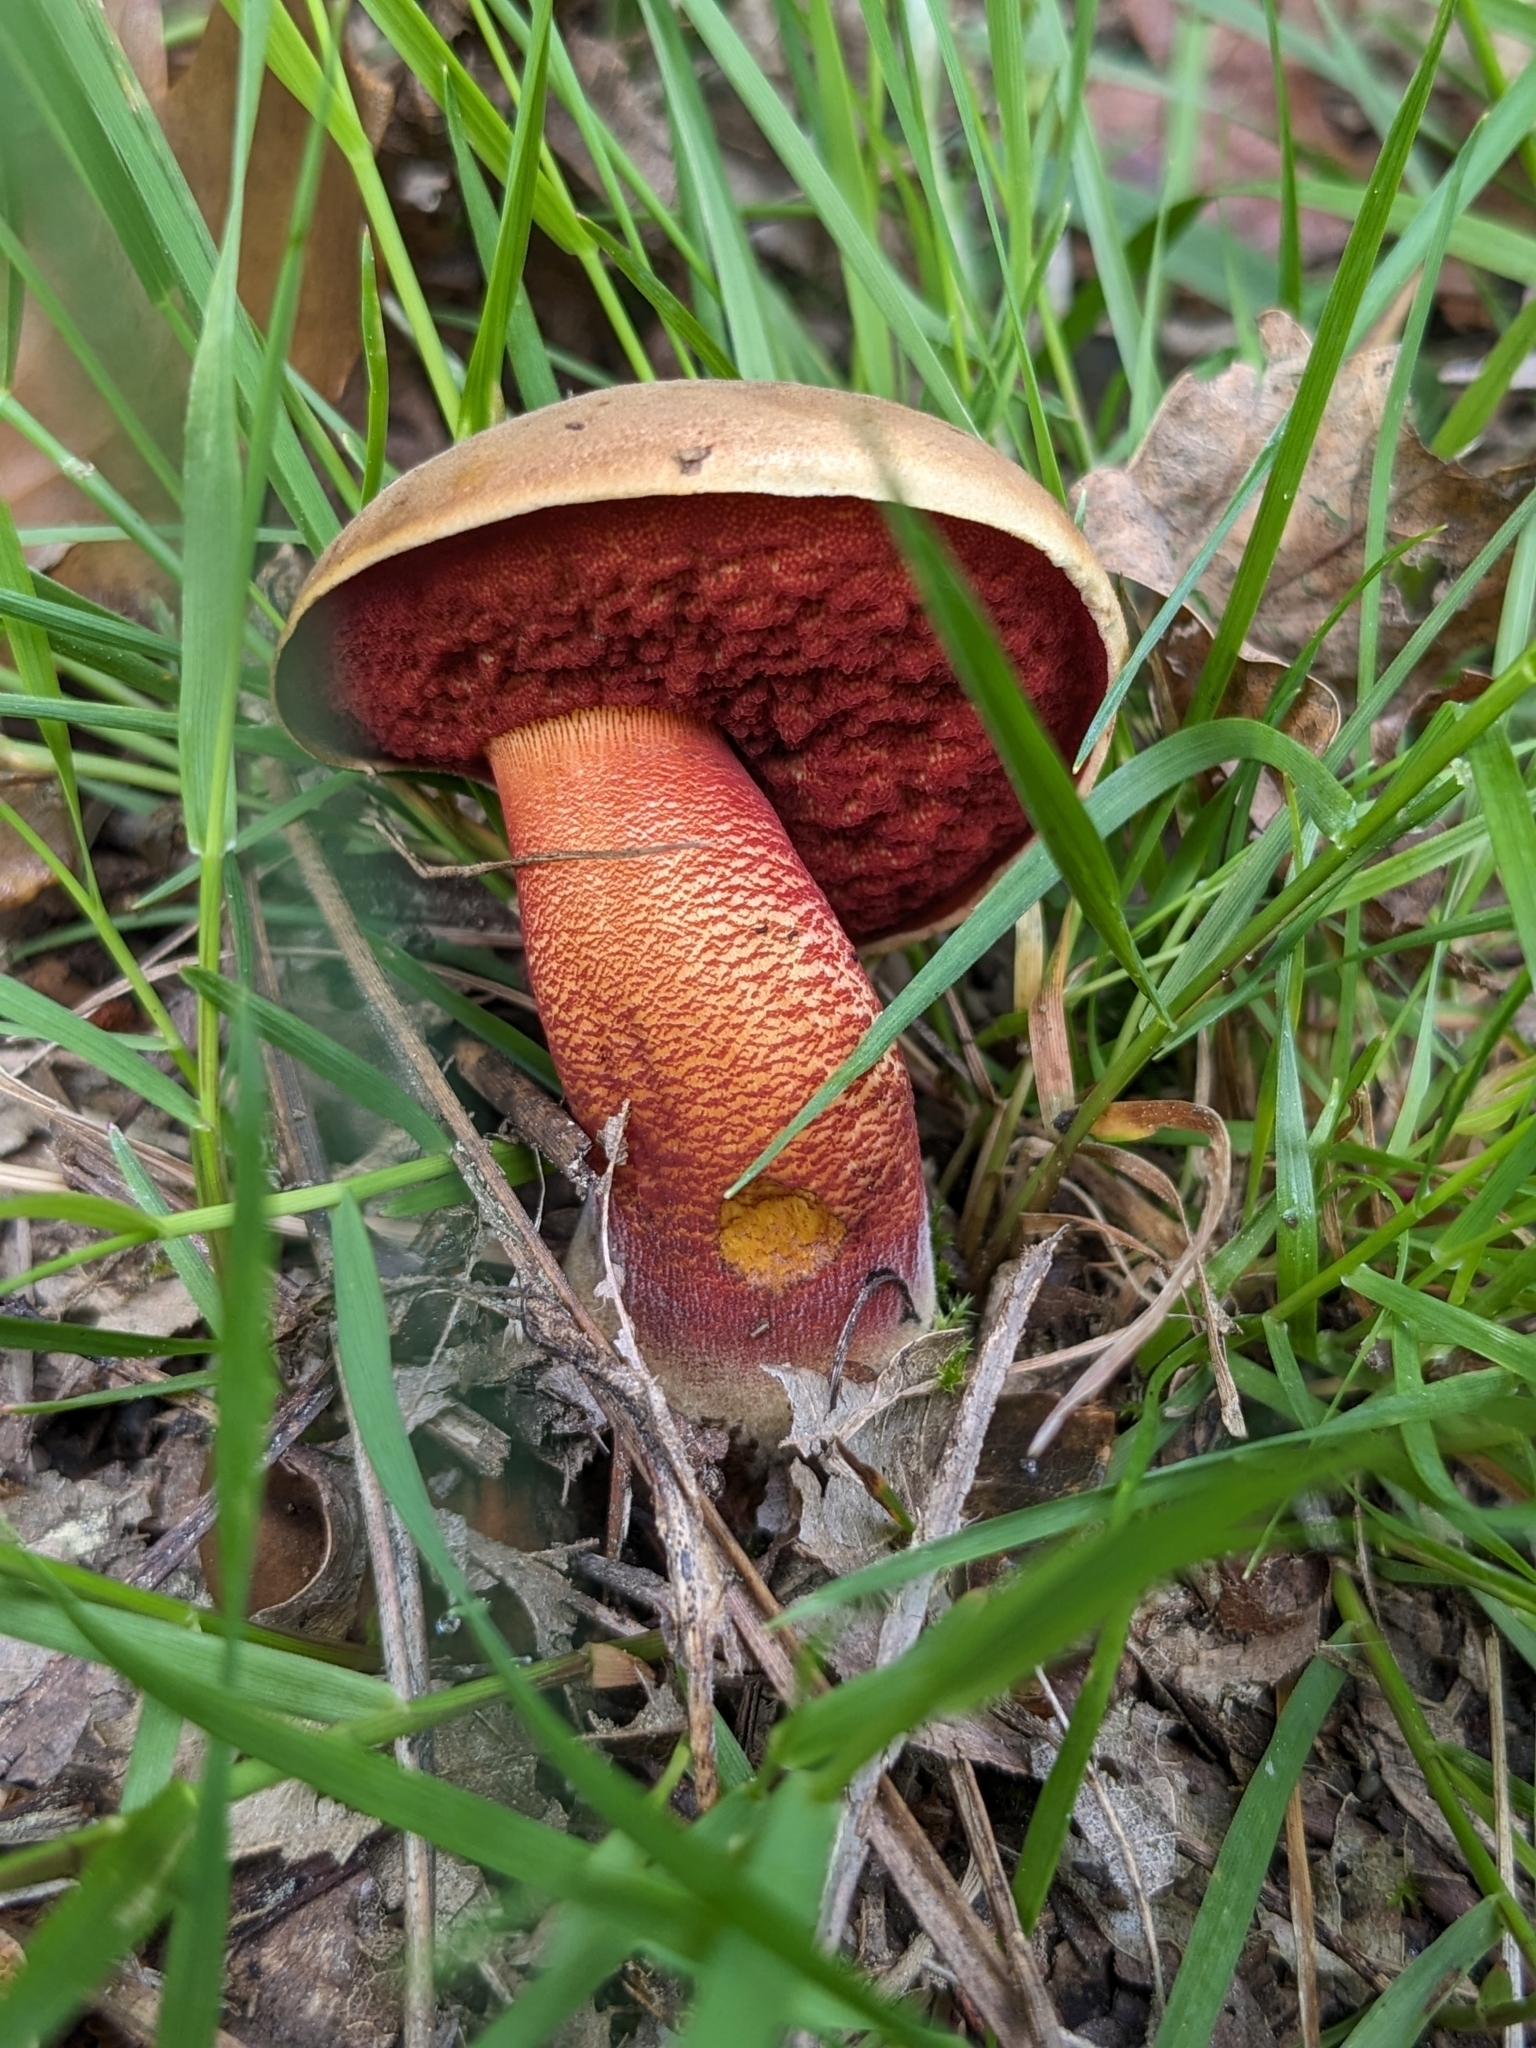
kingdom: Fungi
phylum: Basidiomycota
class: Agaricomycetes
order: Boletales
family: Boletaceae
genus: Neoboletus
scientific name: Neoboletus erythropus
